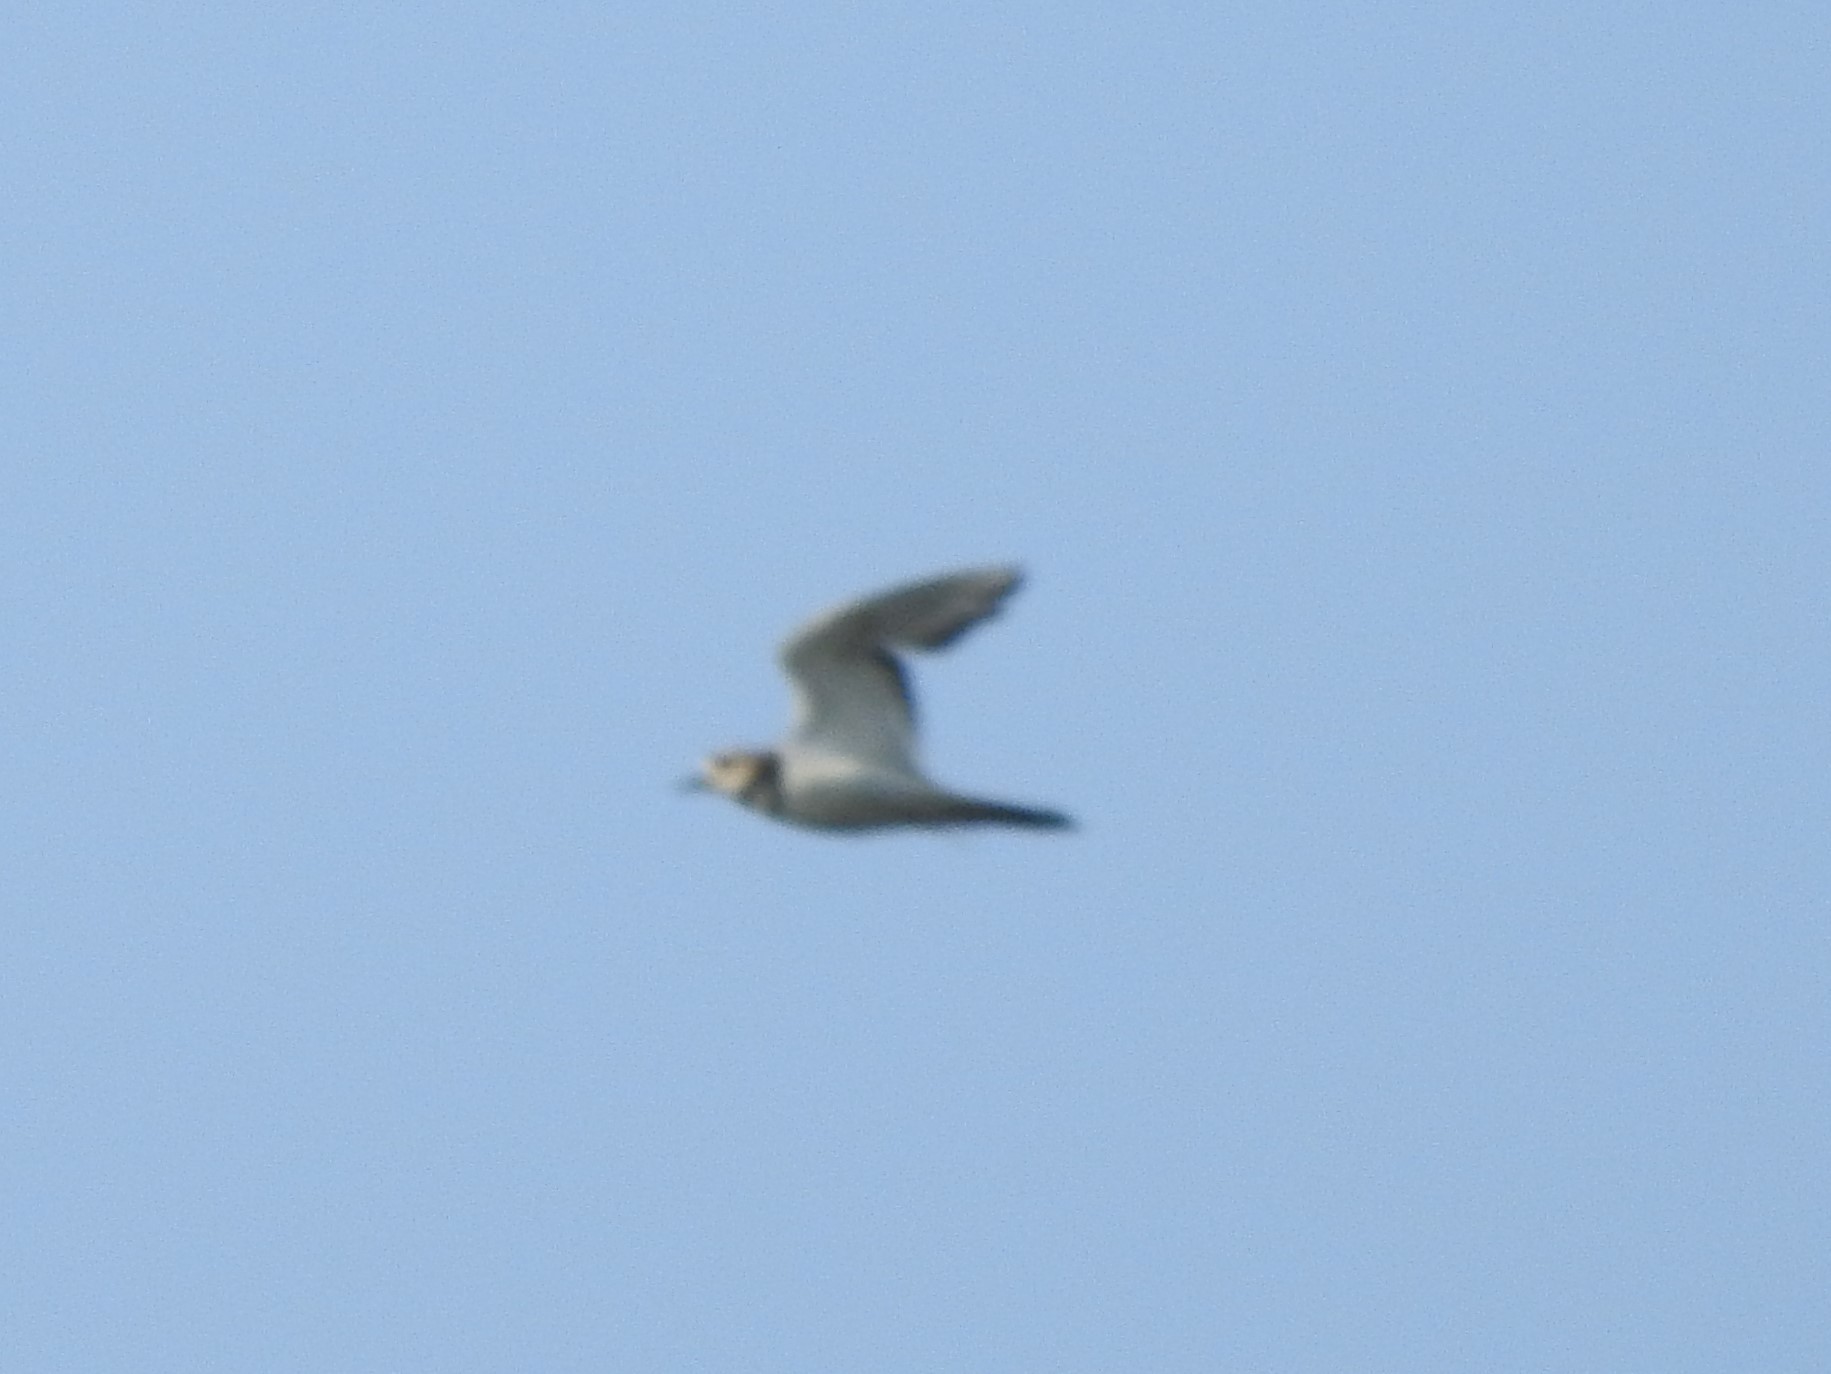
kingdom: Animalia
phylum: Chordata
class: Aves
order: Charadriiformes
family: Charadriidae
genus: Charadrius
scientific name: Charadrius vociferus
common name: Killdeer
